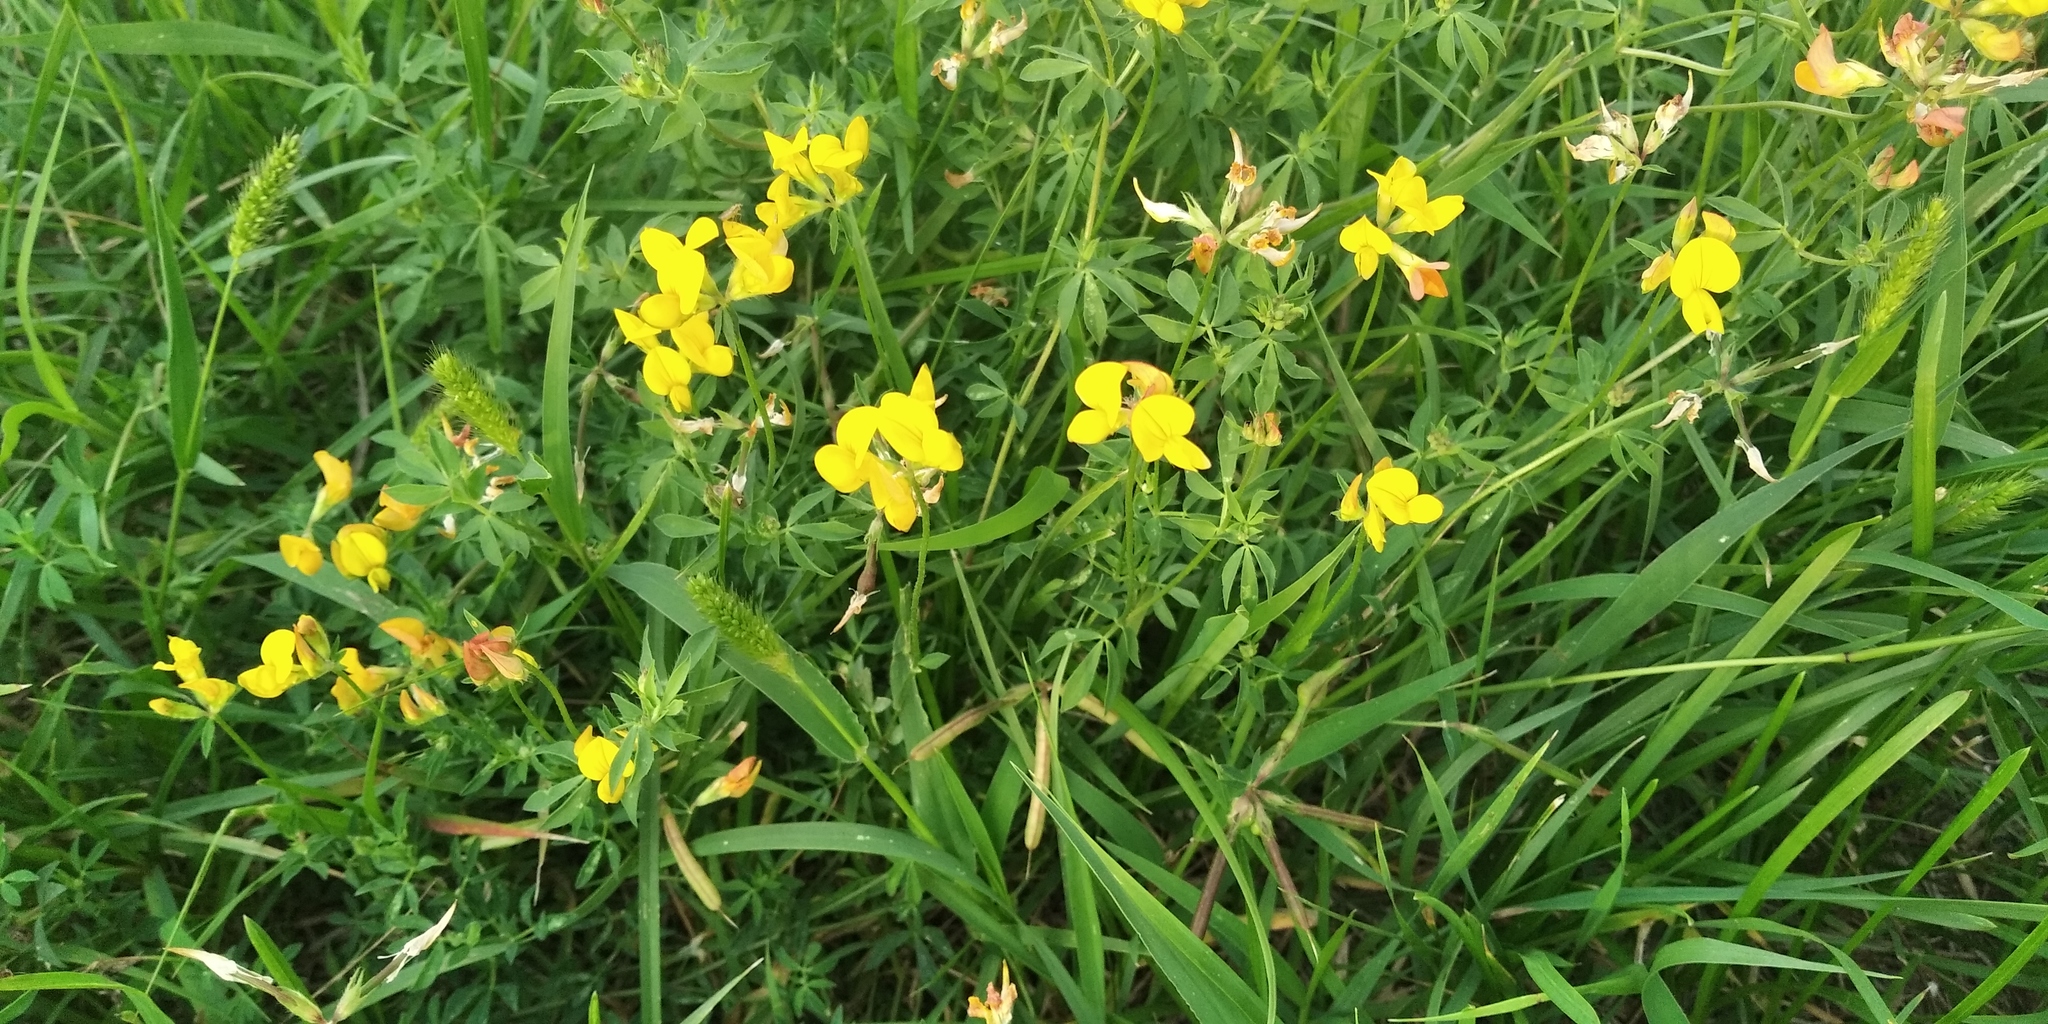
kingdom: Plantae
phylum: Tracheophyta
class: Magnoliopsida
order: Fabales
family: Fabaceae
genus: Lotus
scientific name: Lotus corniculatus
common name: Common bird's-foot-trefoil
